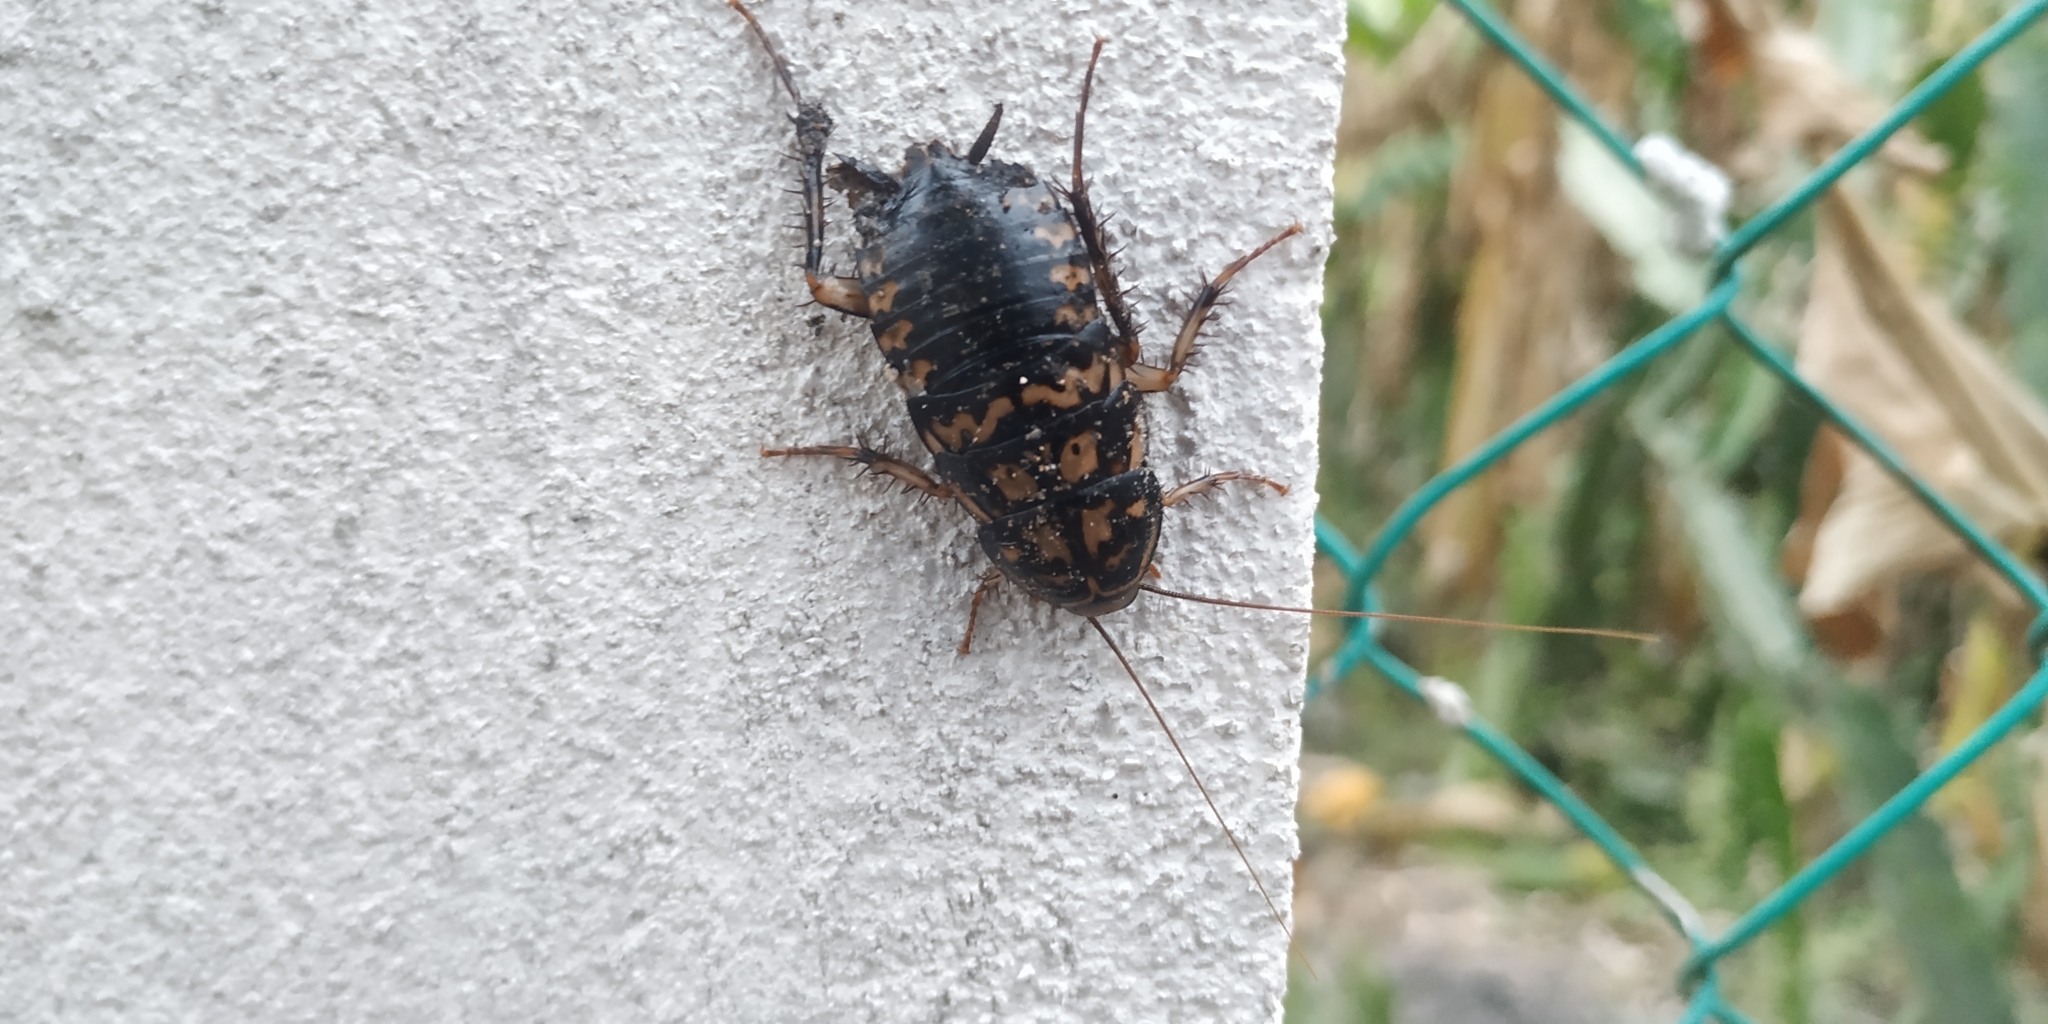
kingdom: Animalia
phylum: Arthropoda
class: Insecta
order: Blattodea
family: Blattidae
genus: Neostylopyga
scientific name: Neostylopyga rhombifolia
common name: Harlequin cockroach
